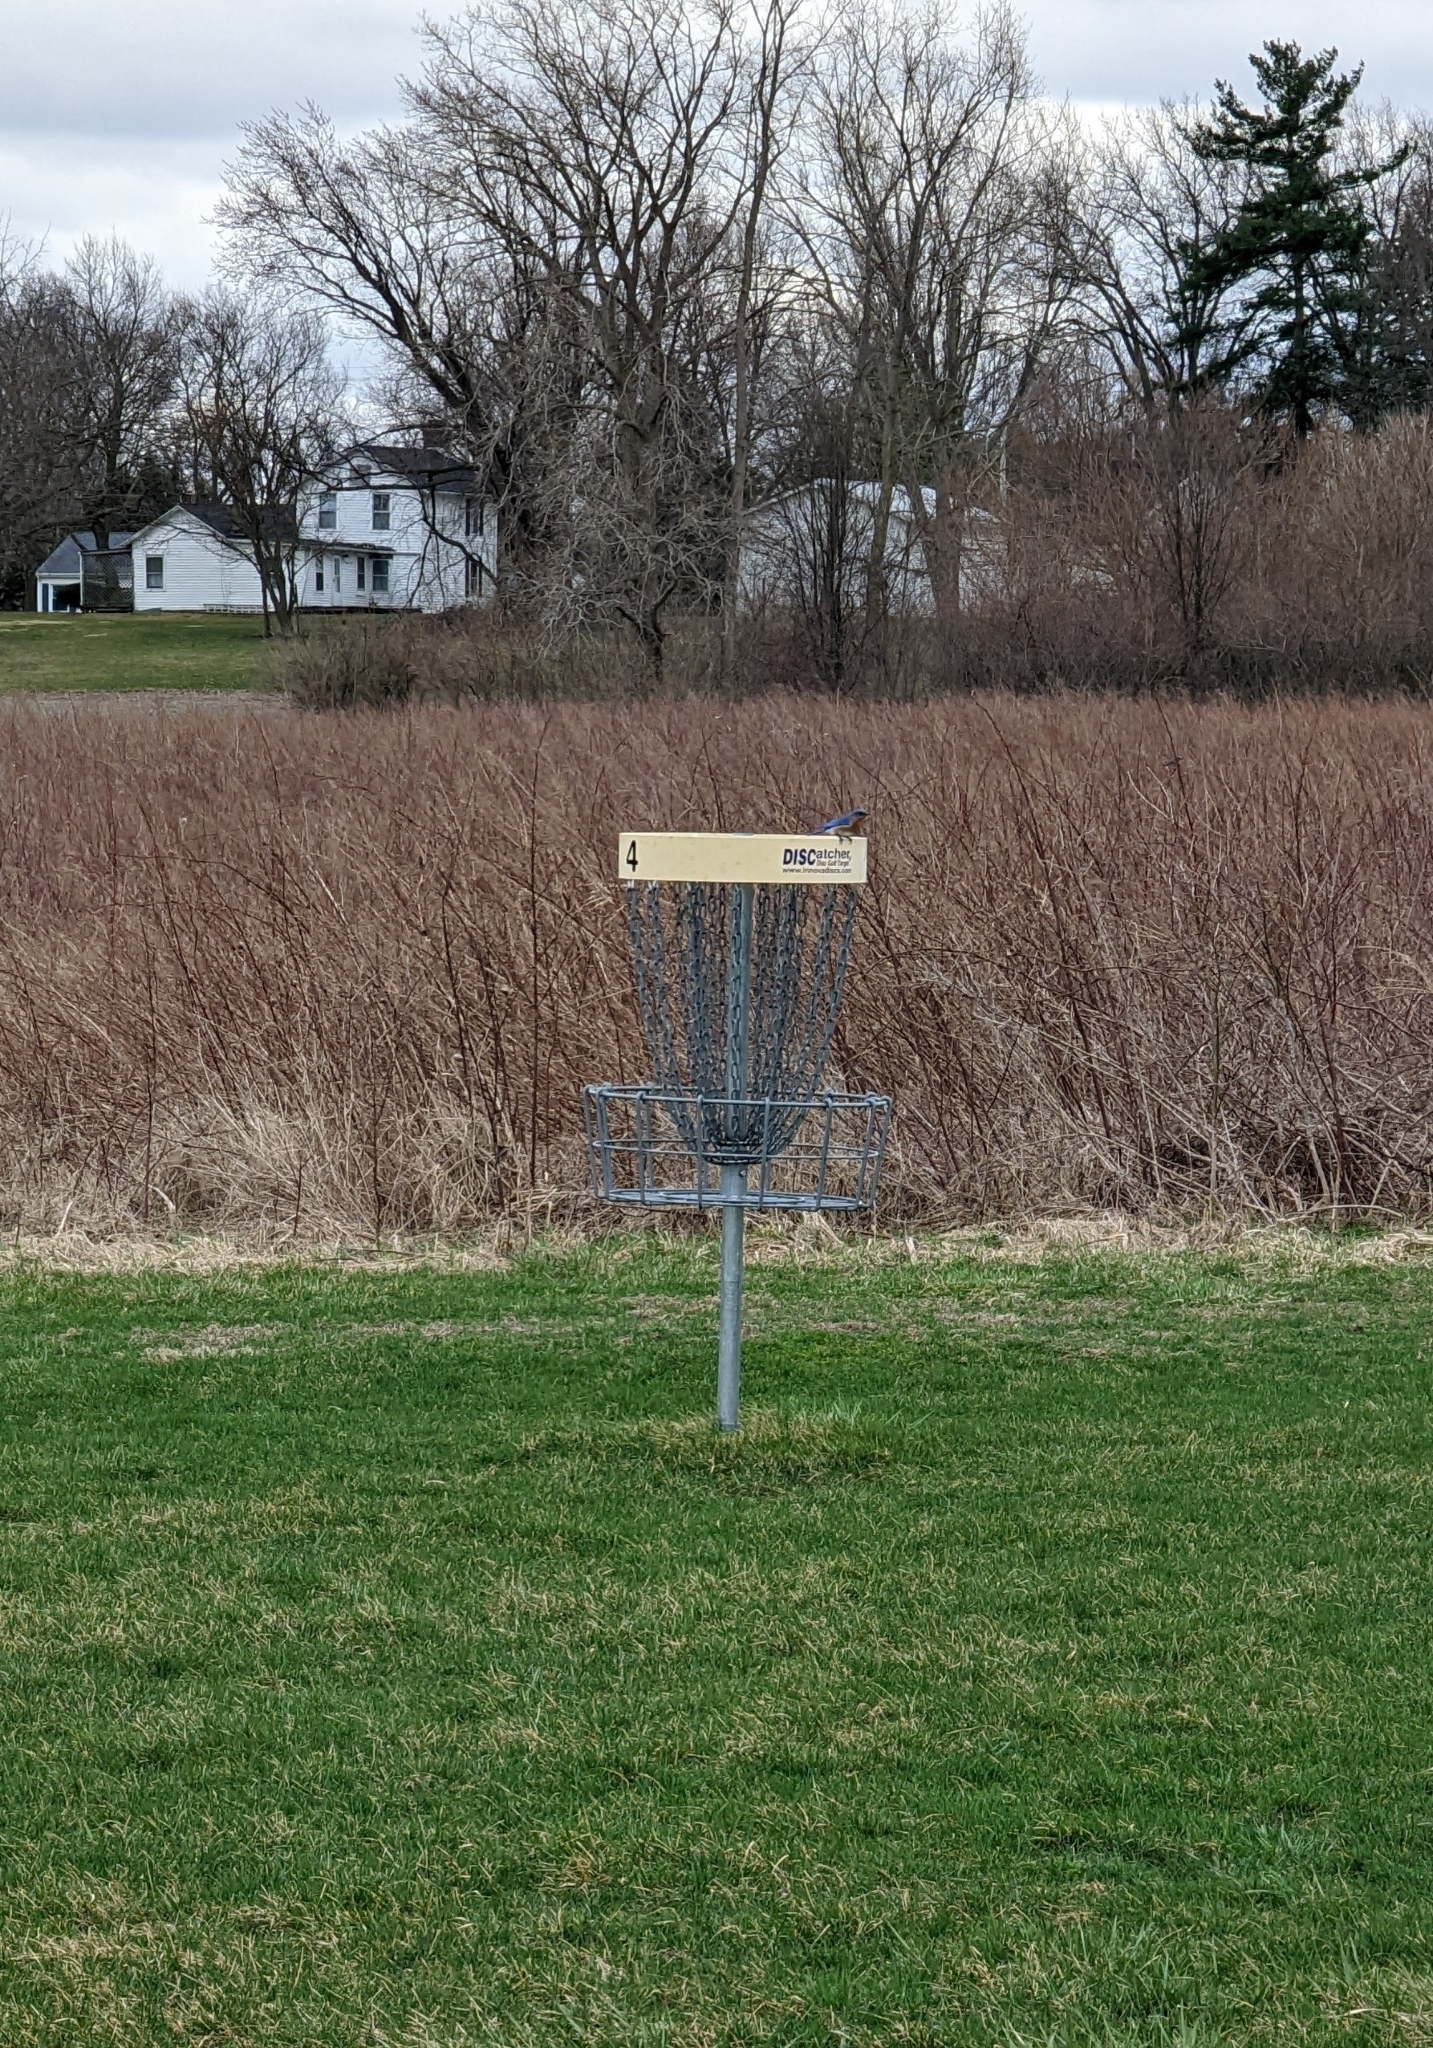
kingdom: Animalia
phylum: Chordata
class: Aves
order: Passeriformes
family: Turdidae
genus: Sialia
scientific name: Sialia sialis
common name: Eastern bluebird
